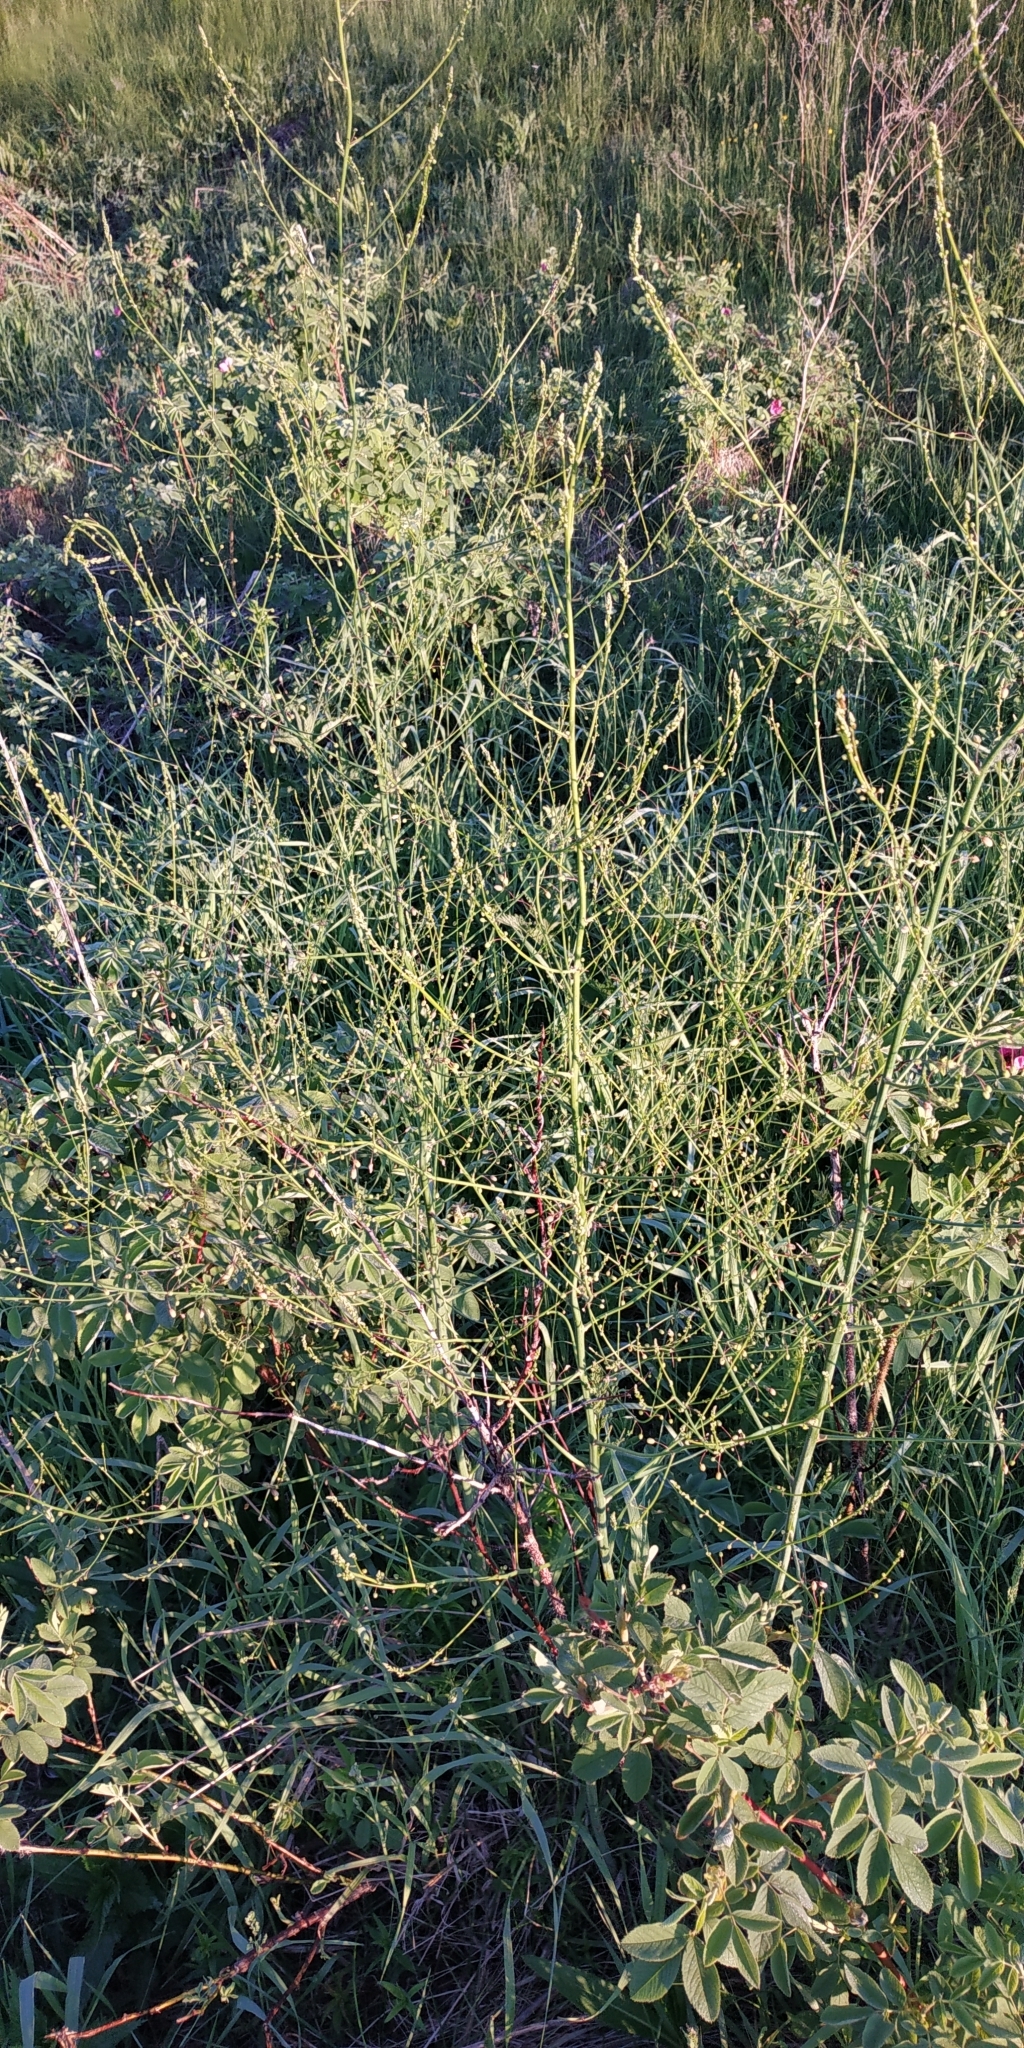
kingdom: Plantae
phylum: Tracheophyta
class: Liliopsida
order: Asparagales
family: Asparagaceae
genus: Asparagus
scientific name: Asparagus officinalis
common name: Garden asparagus
